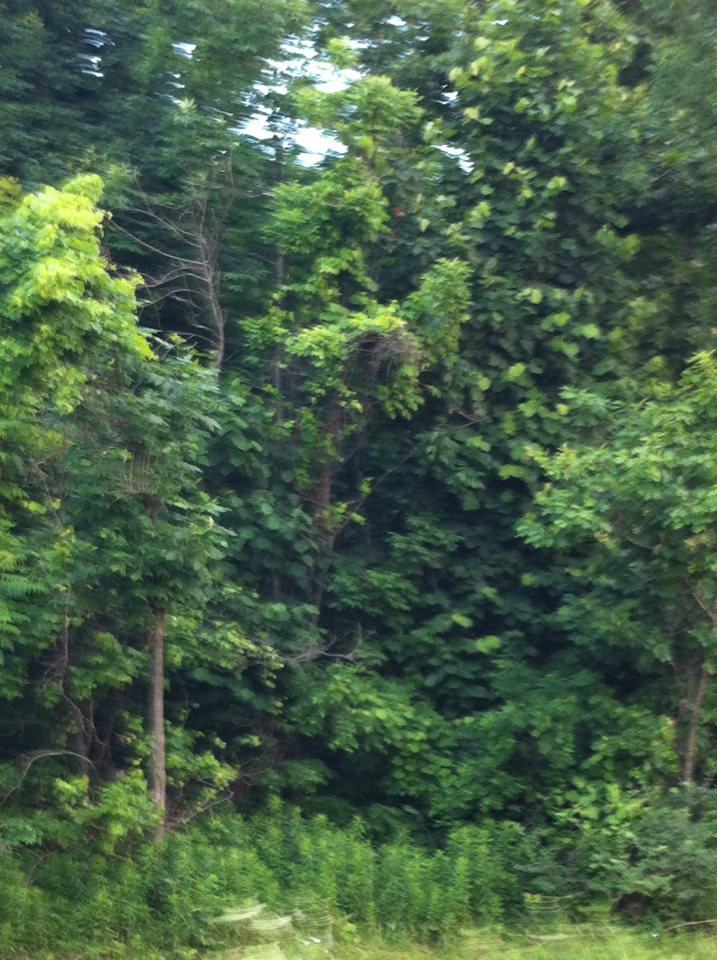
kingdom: Plantae
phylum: Tracheophyta
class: Magnoliopsida
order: Malvales
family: Malvaceae
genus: Tilia
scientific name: Tilia americana
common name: Basswood
